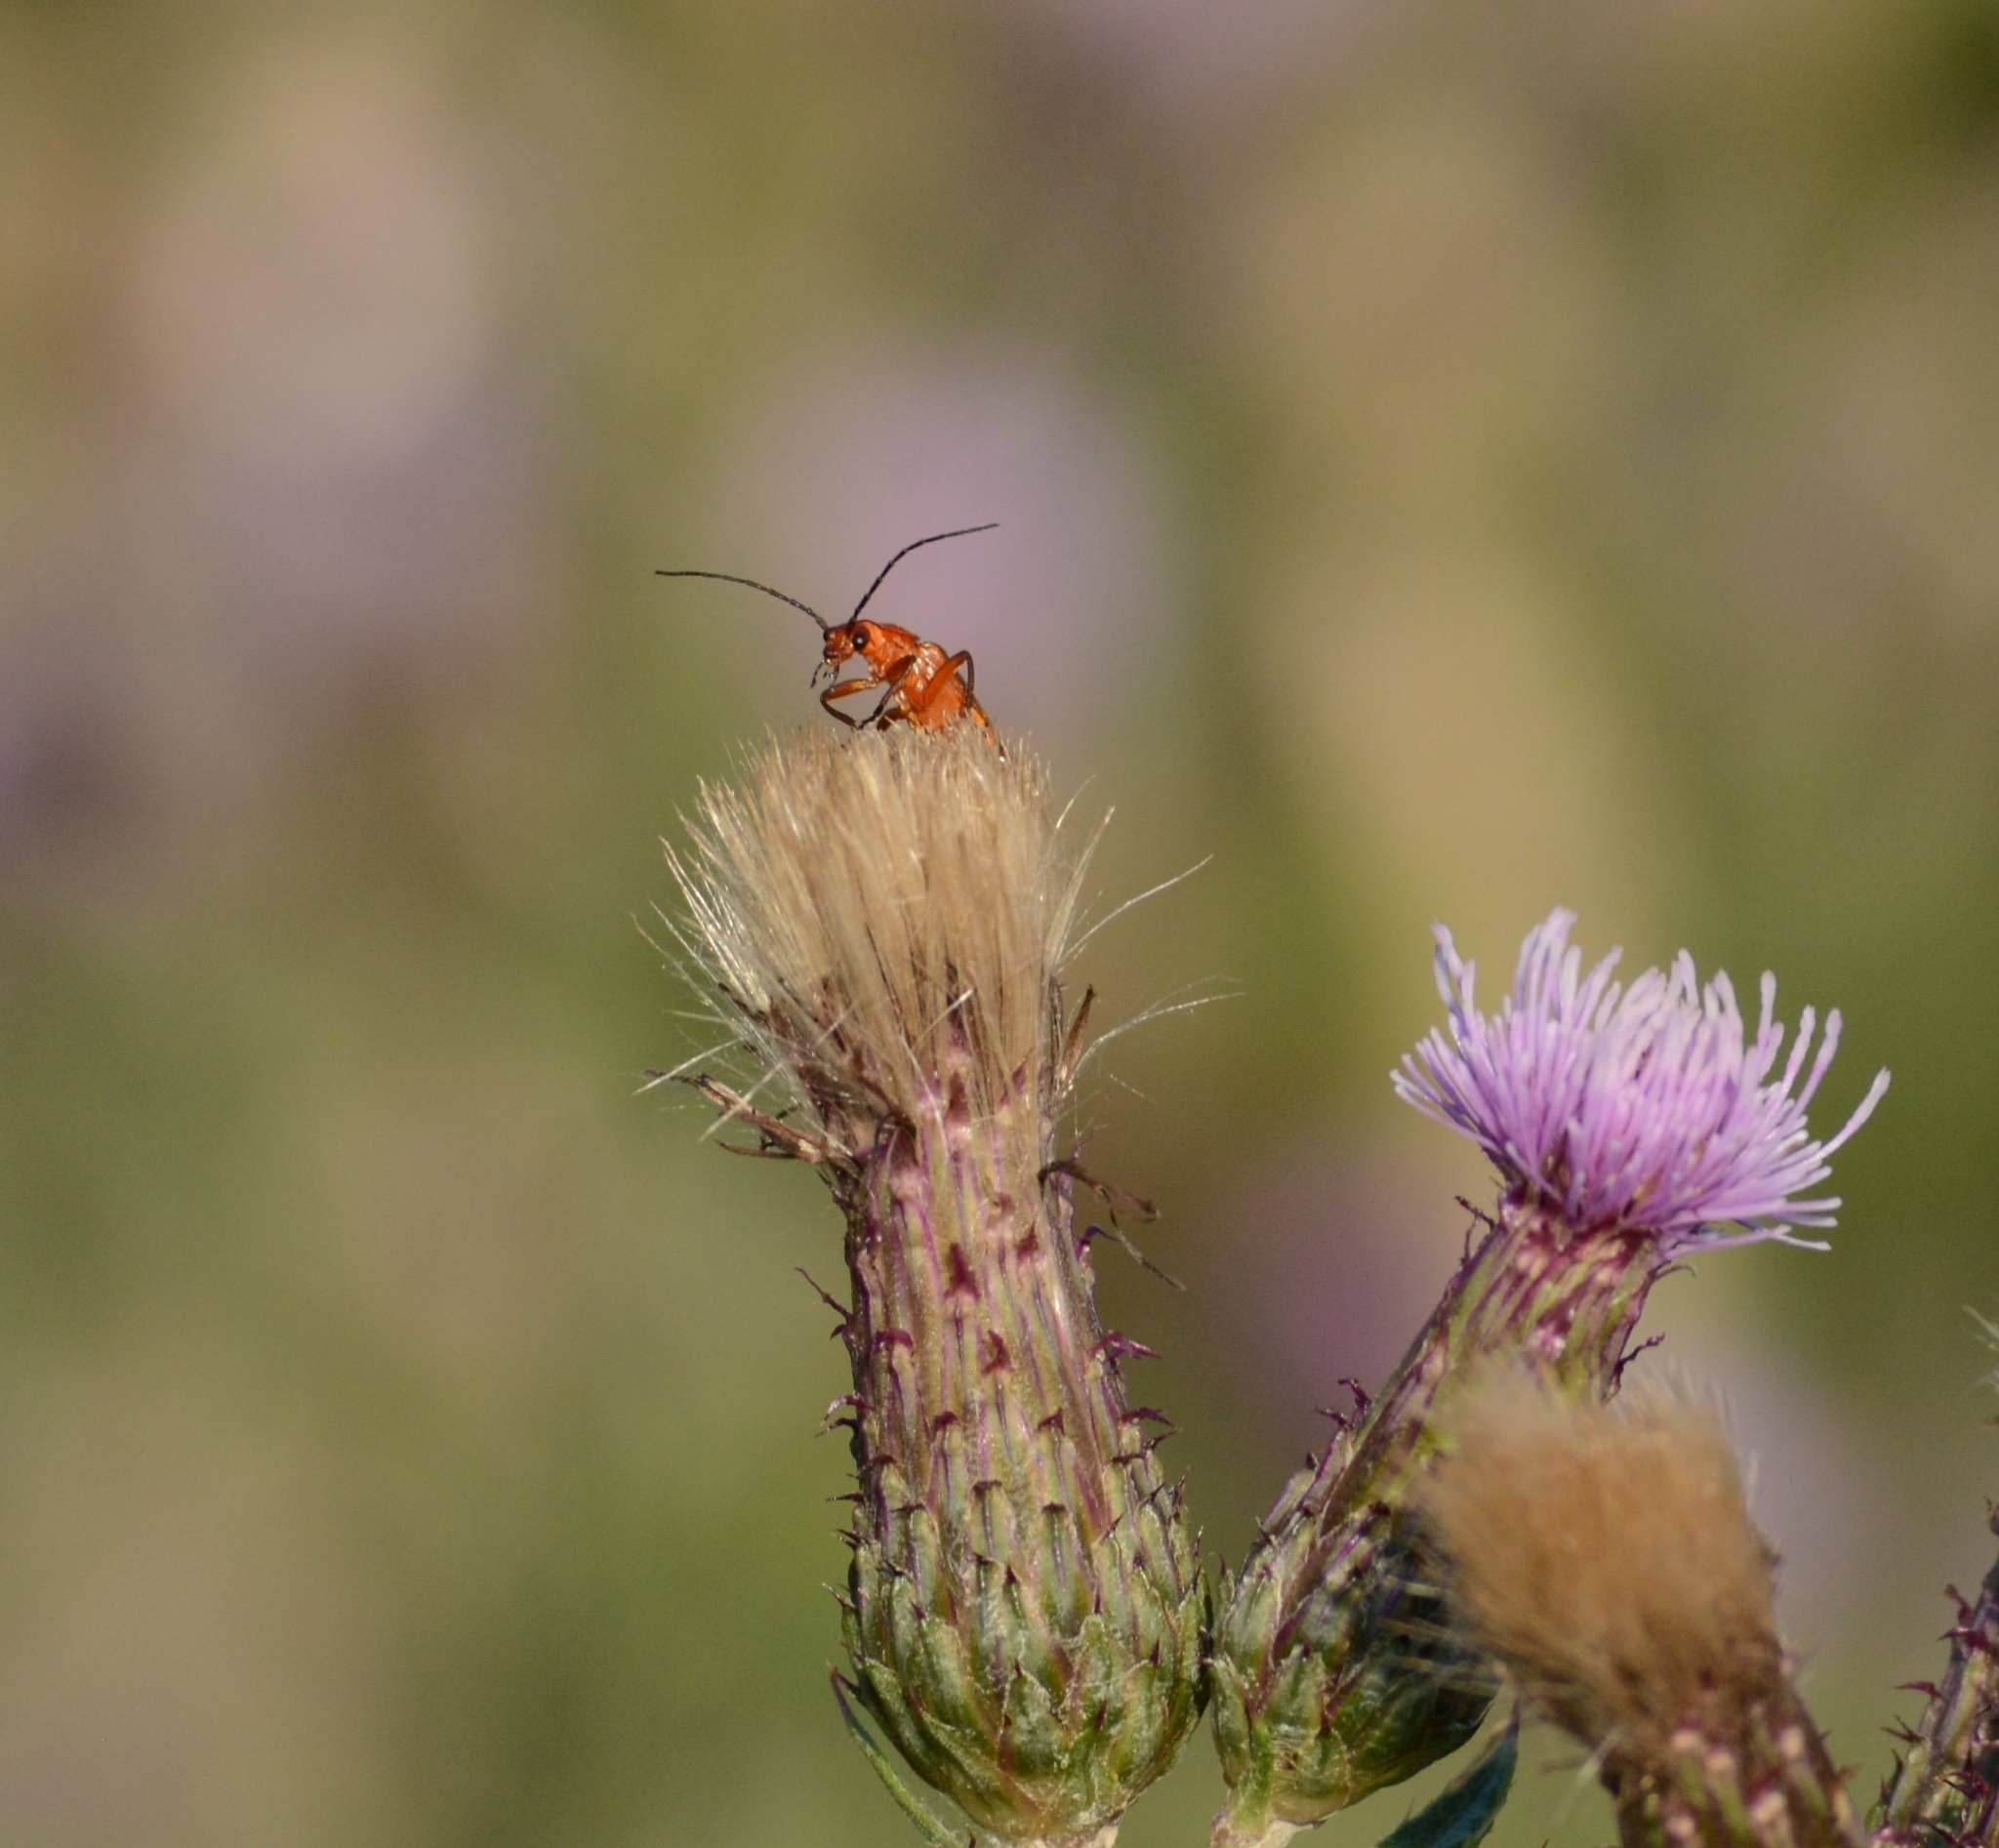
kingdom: Animalia
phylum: Arthropoda
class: Insecta
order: Coleoptera
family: Cantharidae
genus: Rhagonycha
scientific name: Rhagonycha fulva
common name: Common red soldier beetle
